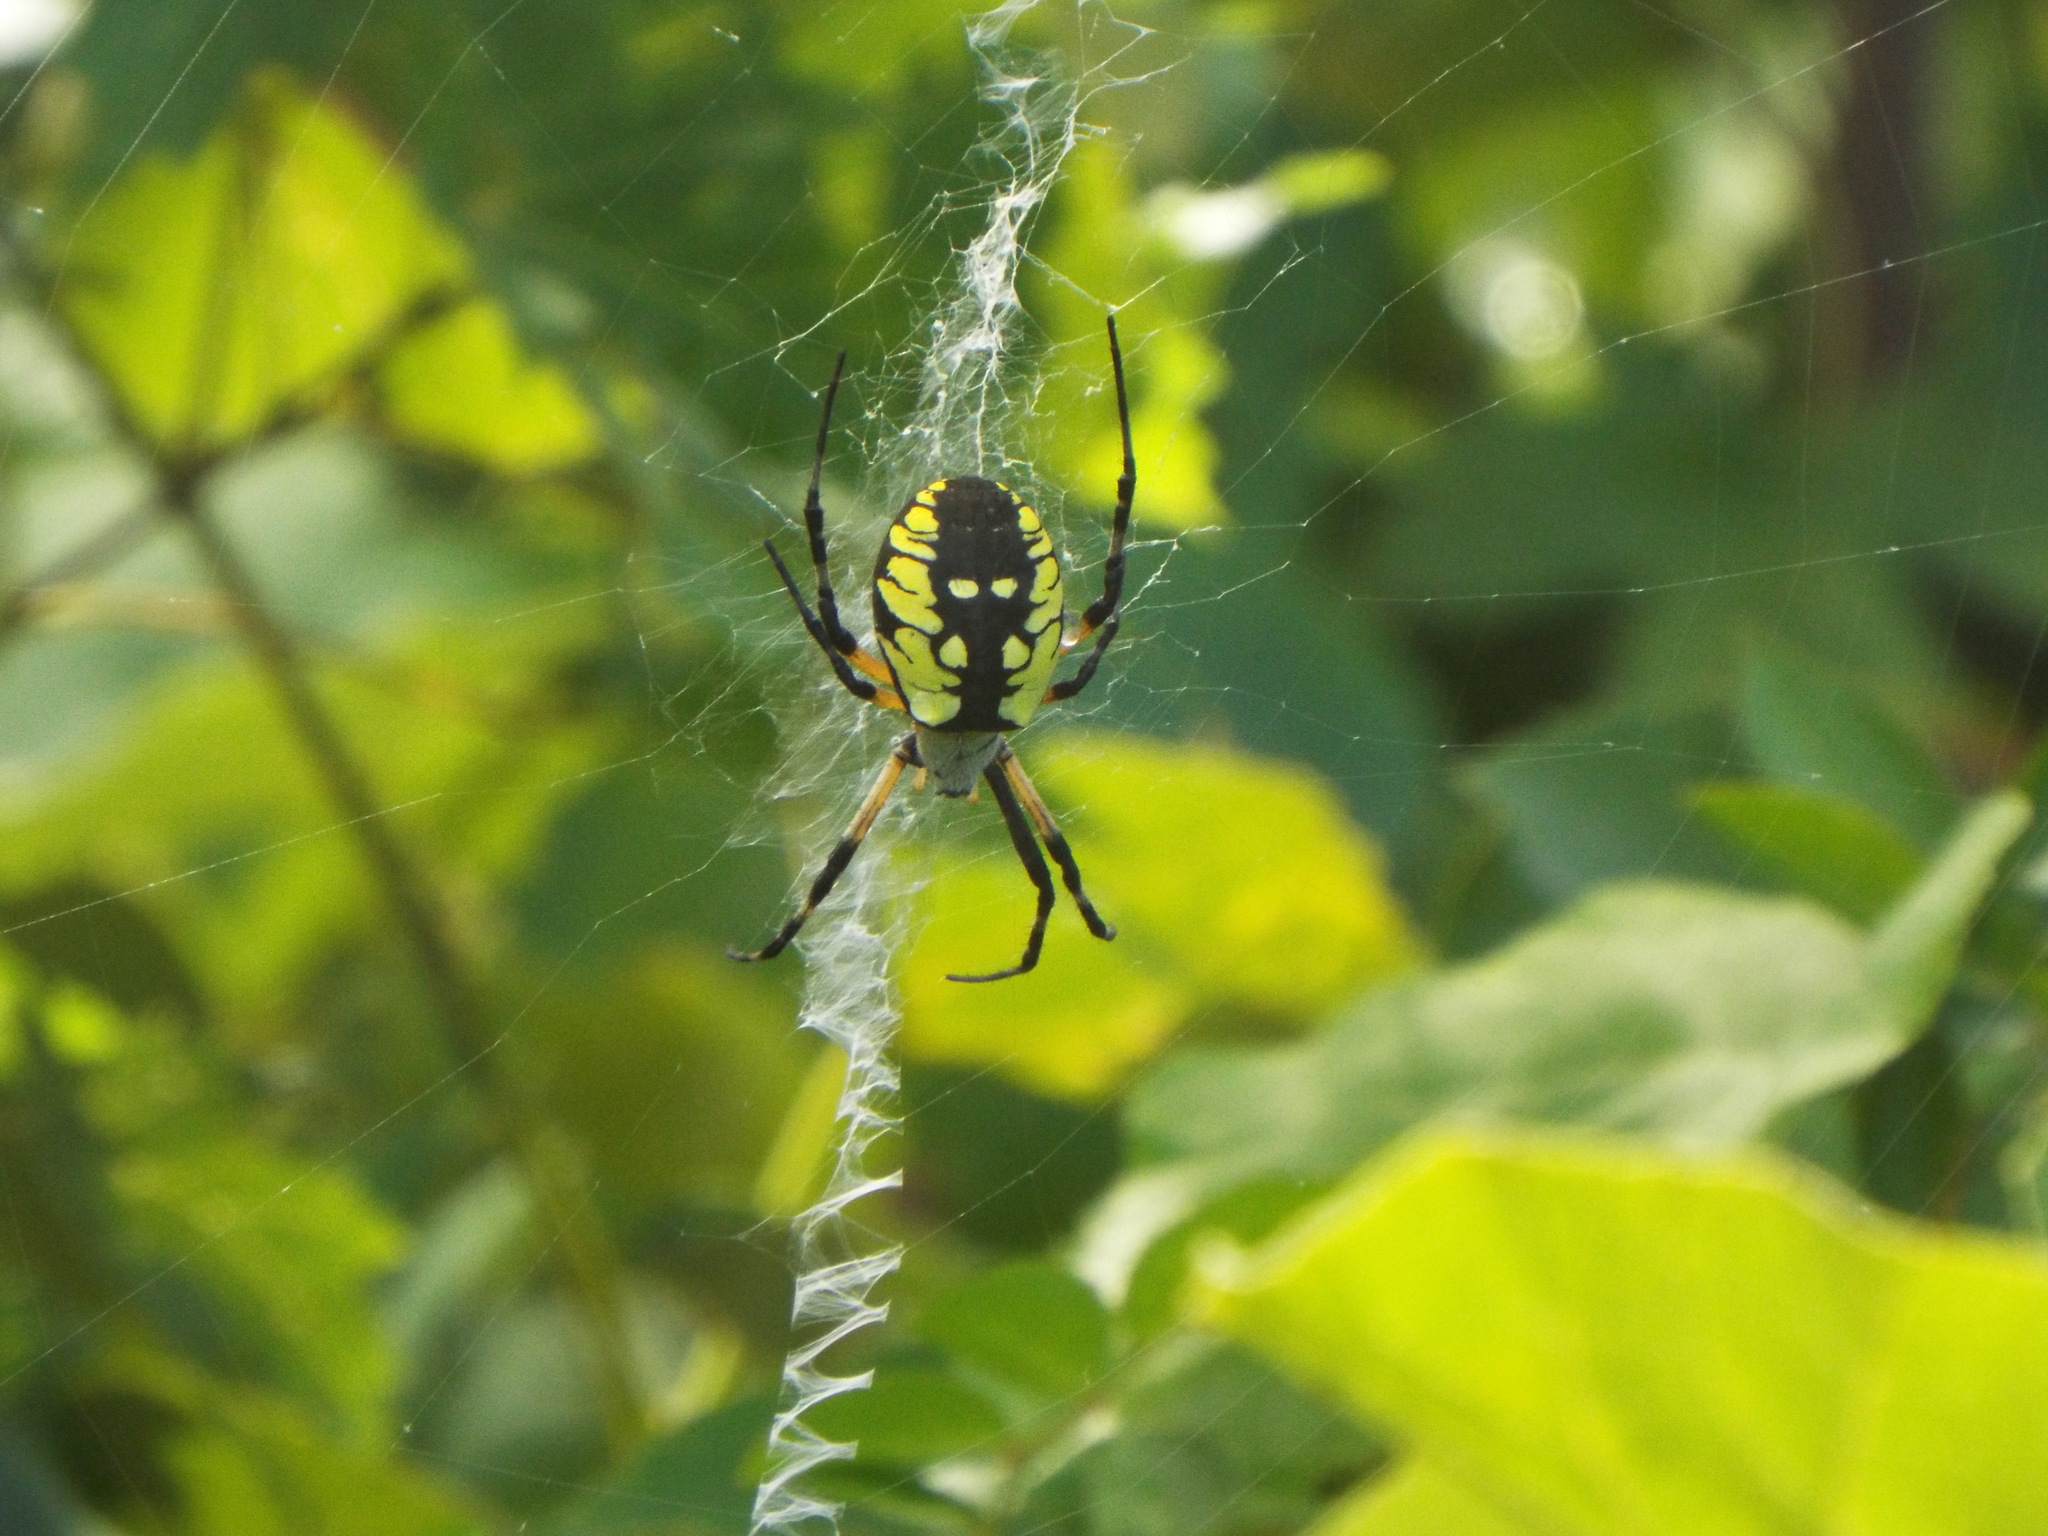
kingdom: Animalia
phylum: Arthropoda
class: Arachnida
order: Araneae
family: Araneidae
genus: Argiope
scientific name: Argiope aurantia
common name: Orb weavers
